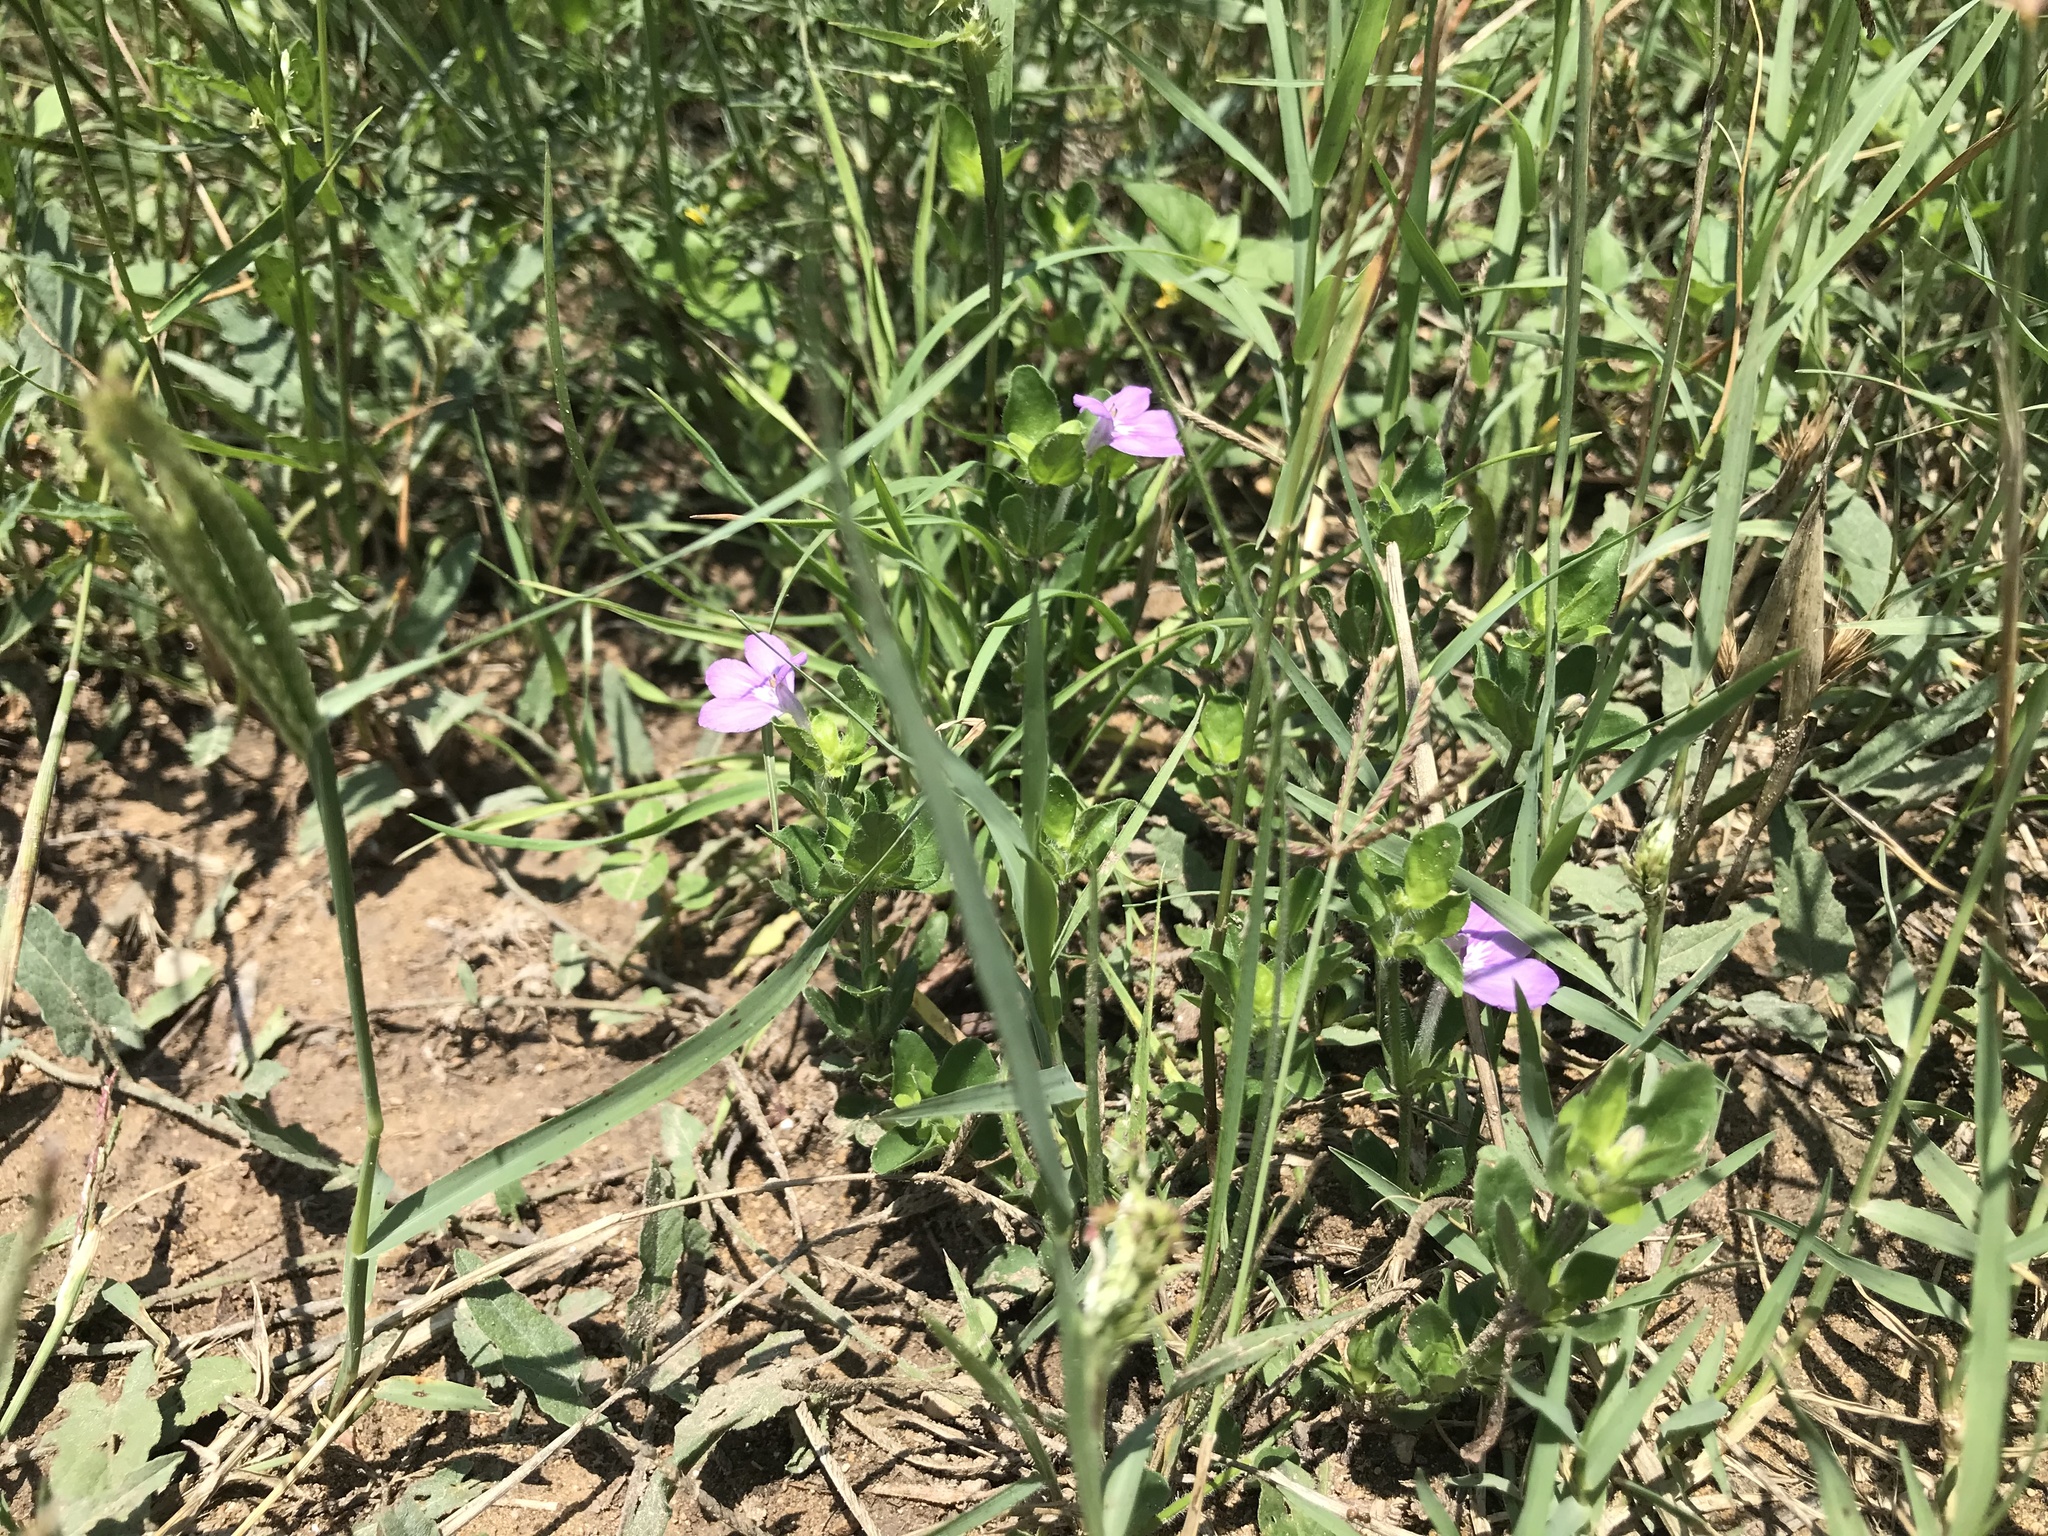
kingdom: Plantae
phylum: Tracheophyta
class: Magnoliopsida
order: Lamiales
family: Acanthaceae
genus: Justicia
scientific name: Justicia pilosella
